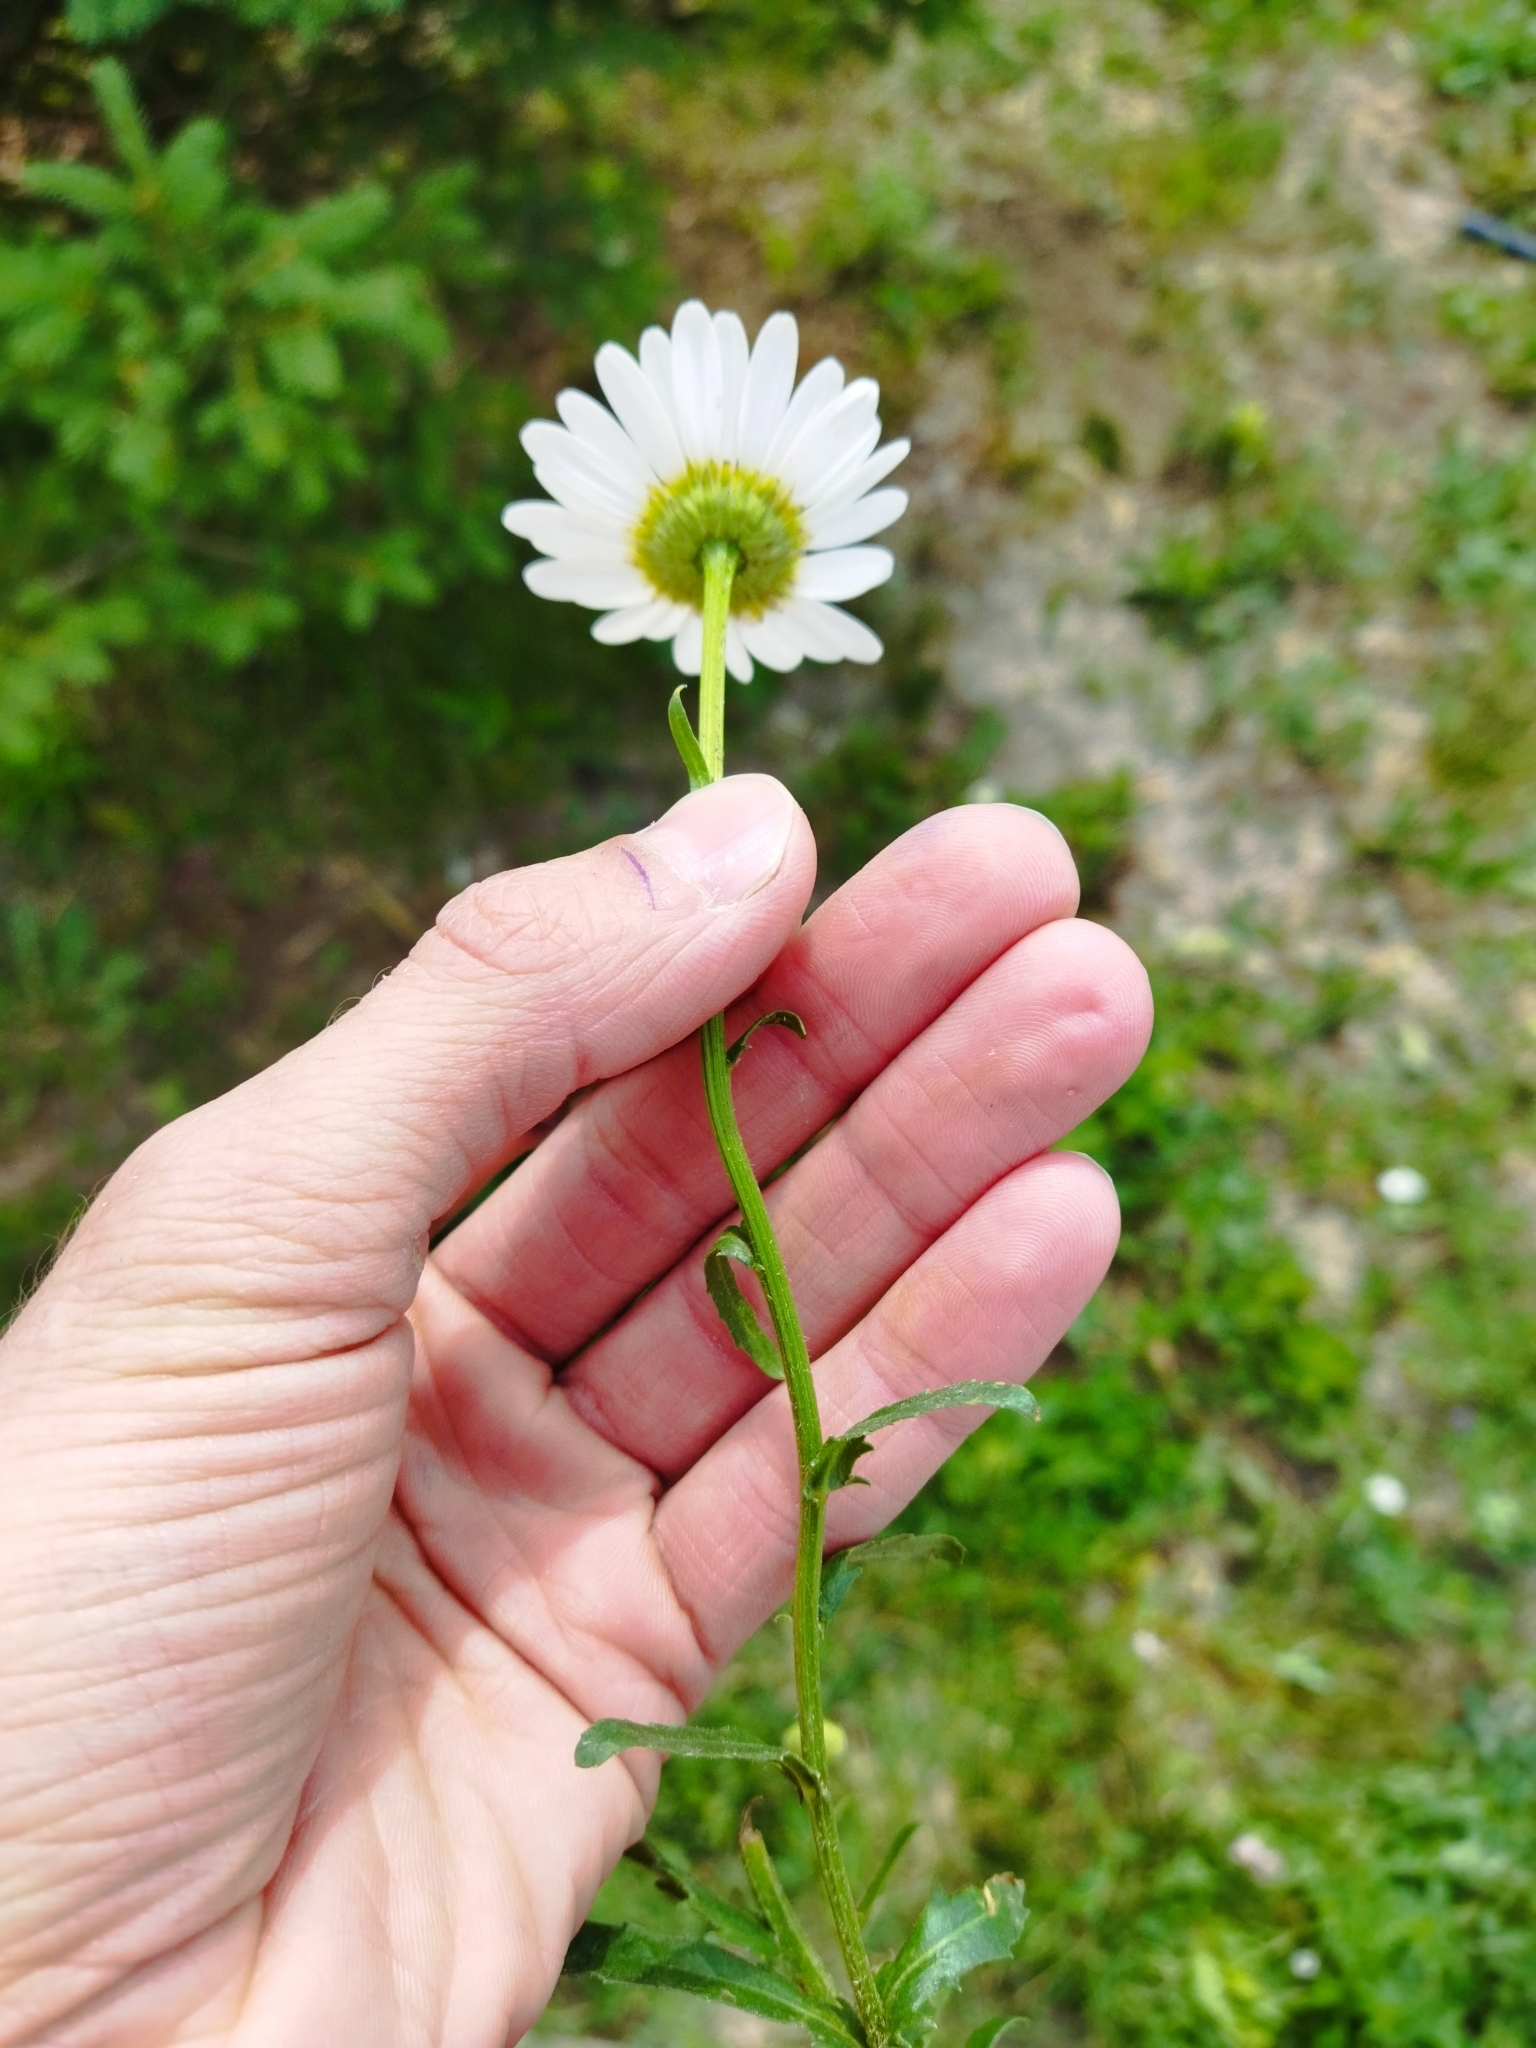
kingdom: Plantae
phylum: Tracheophyta
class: Magnoliopsida
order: Asterales
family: Asteraceae
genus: Leucanthemum
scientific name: Leucanthemum vulgare
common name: Oxeye daisy
